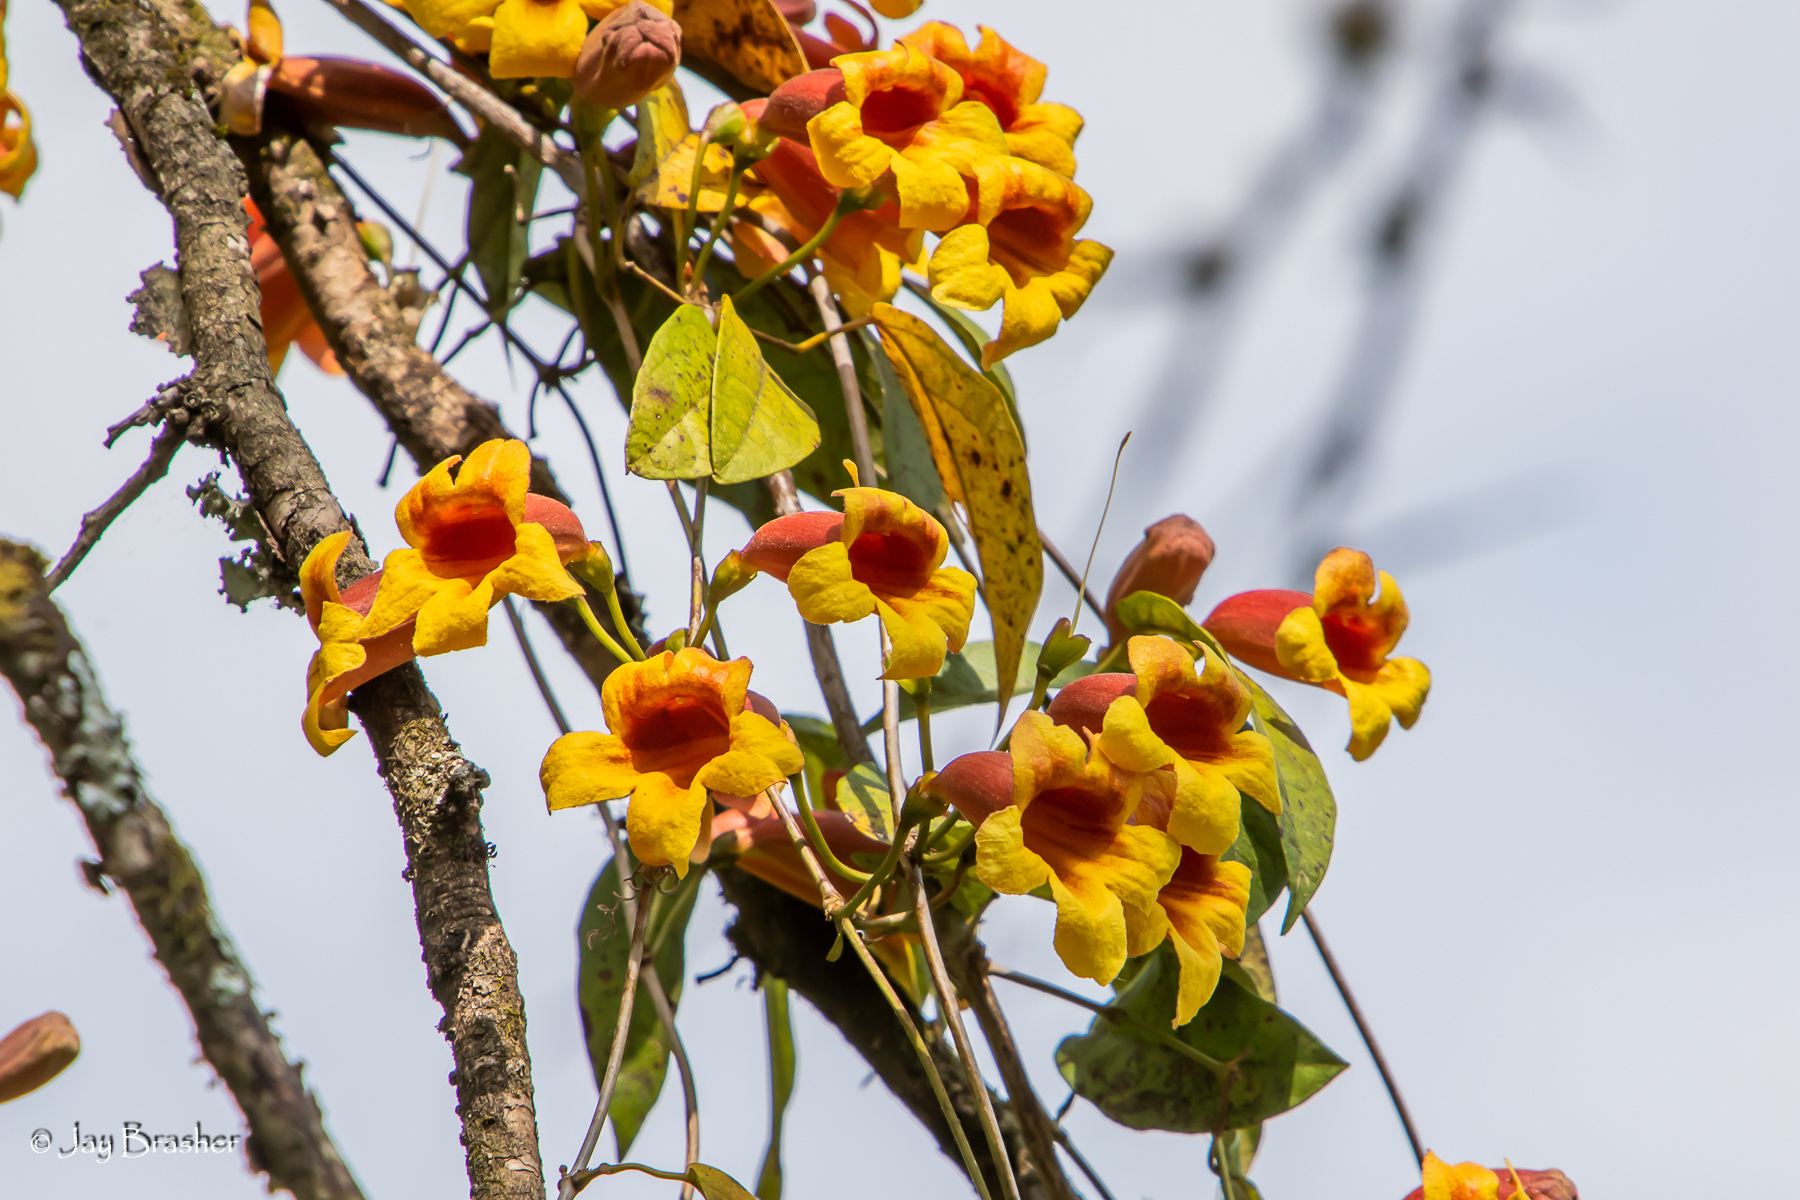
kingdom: Plantae
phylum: Tracheophyta
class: Magnoliopsida
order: Lamiales
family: Bignoniaceae
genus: Bignonia
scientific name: Bignonia capreolata
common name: Crossvine
